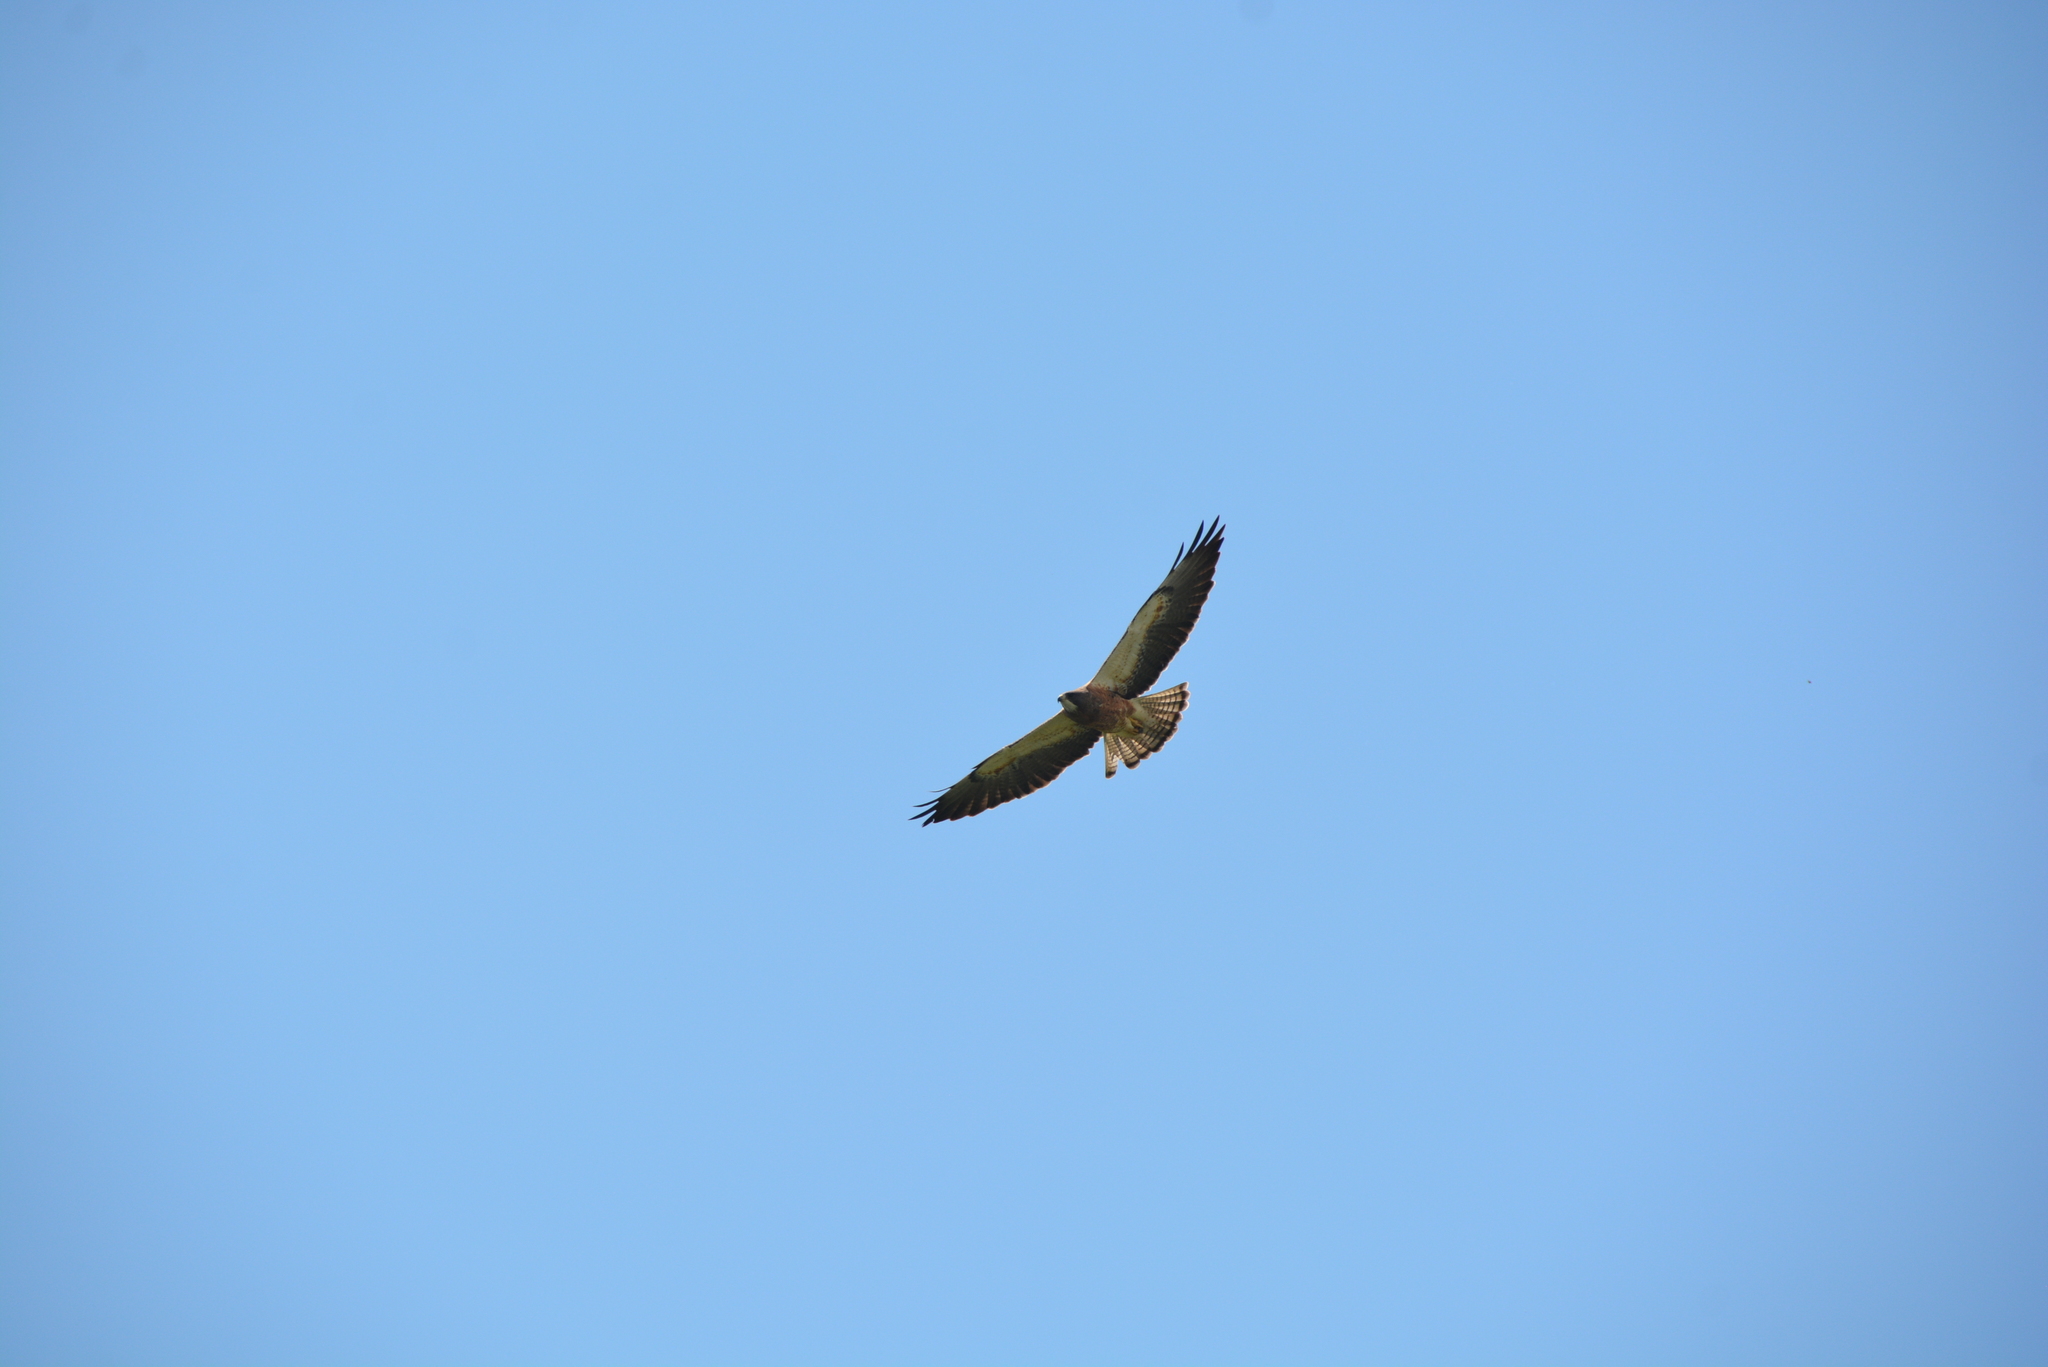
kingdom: Animalia
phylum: Chordata
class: Aves
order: Accipitriformes
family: Accipitridae
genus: Buteo
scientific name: Buteo swainsoni
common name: Swainson's hawk
